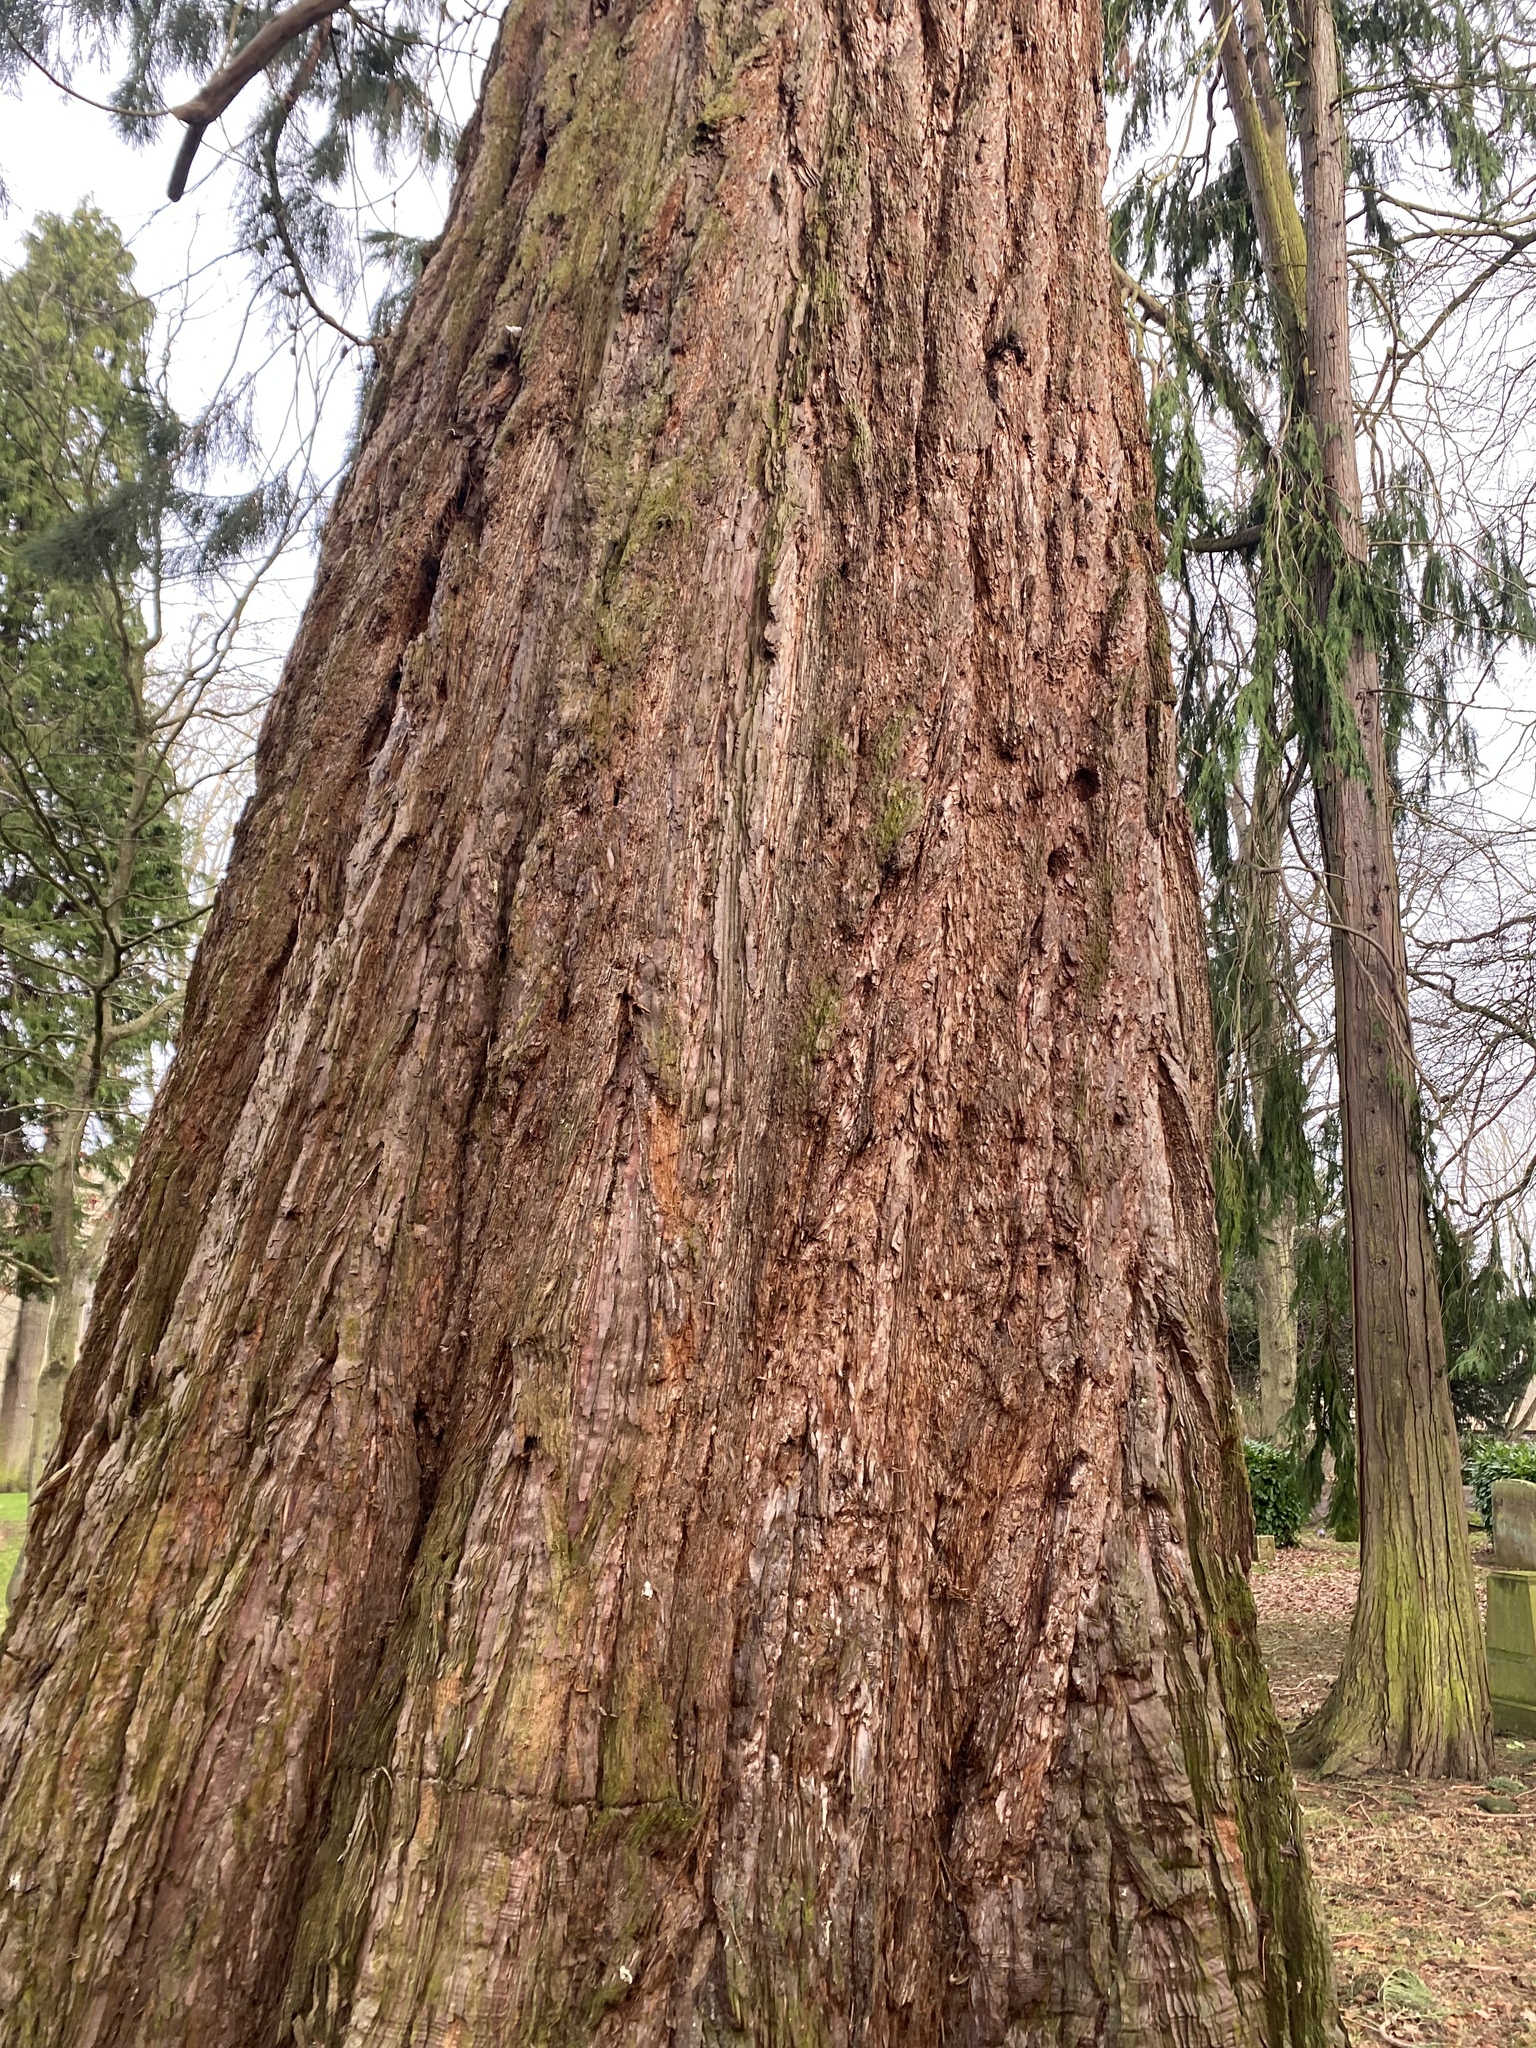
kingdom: Plantae
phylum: Tracheophyta
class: Pinopsida
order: Pinales
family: Cupressaceae
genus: Sequoiadendron
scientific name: Sequoiadendron giganteum
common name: Wellingtonia
